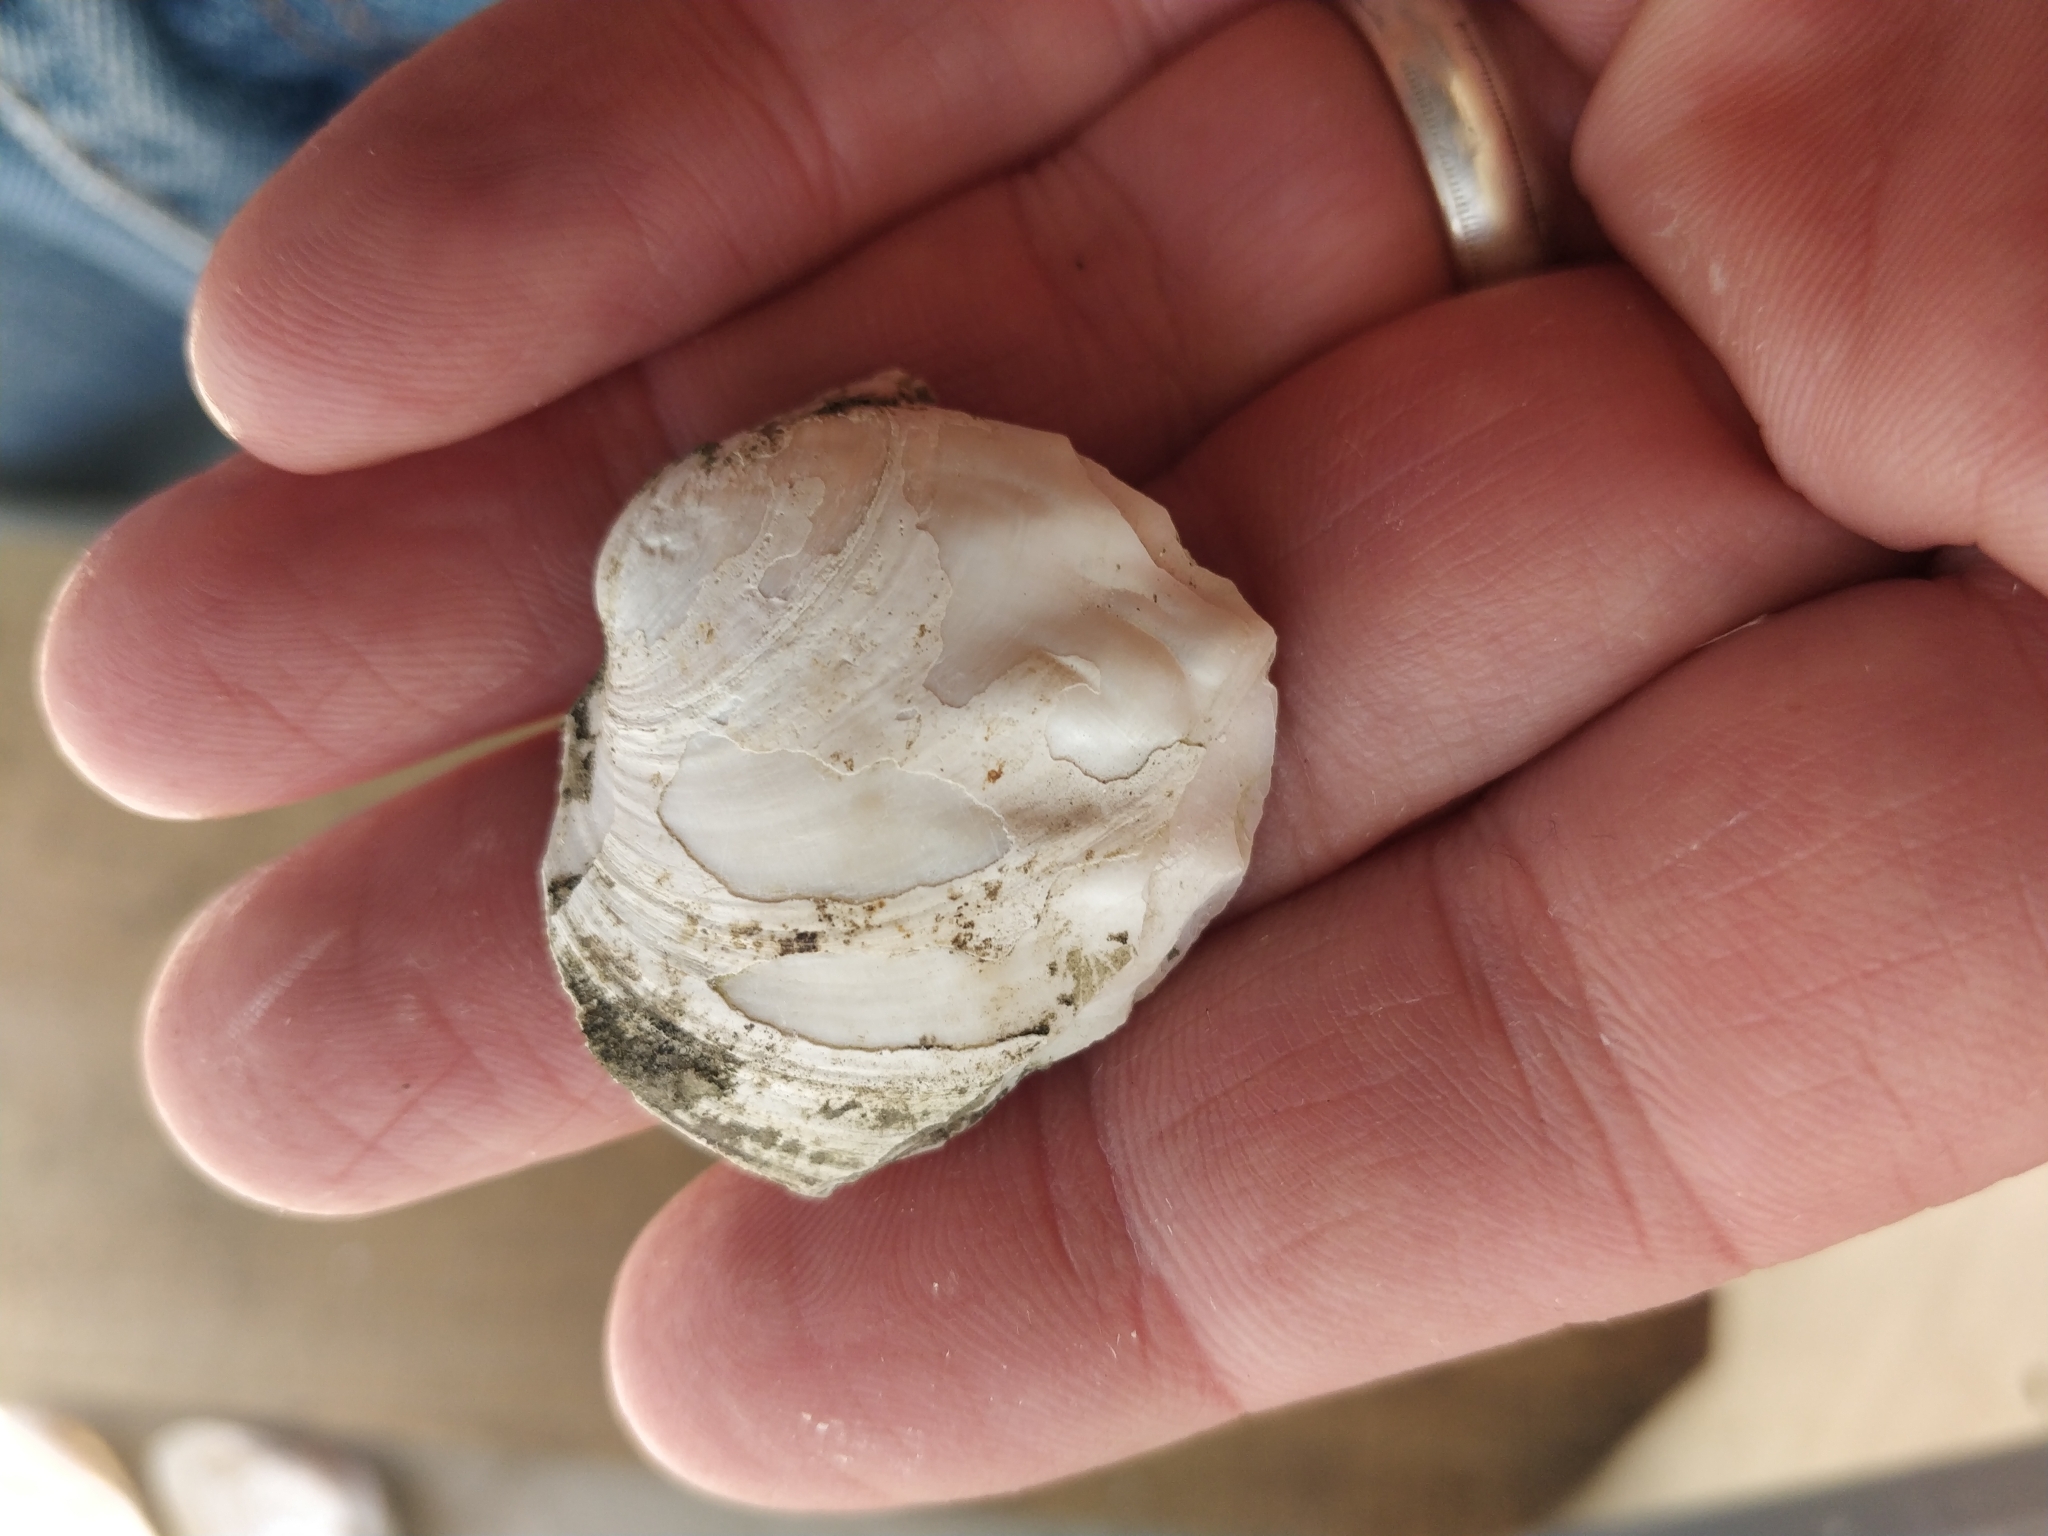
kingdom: Animalia
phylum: Mollusca
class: Bivalvia
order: Unionida
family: Unionidae
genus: Amblema
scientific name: Amblema plicata
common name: Threeridge
